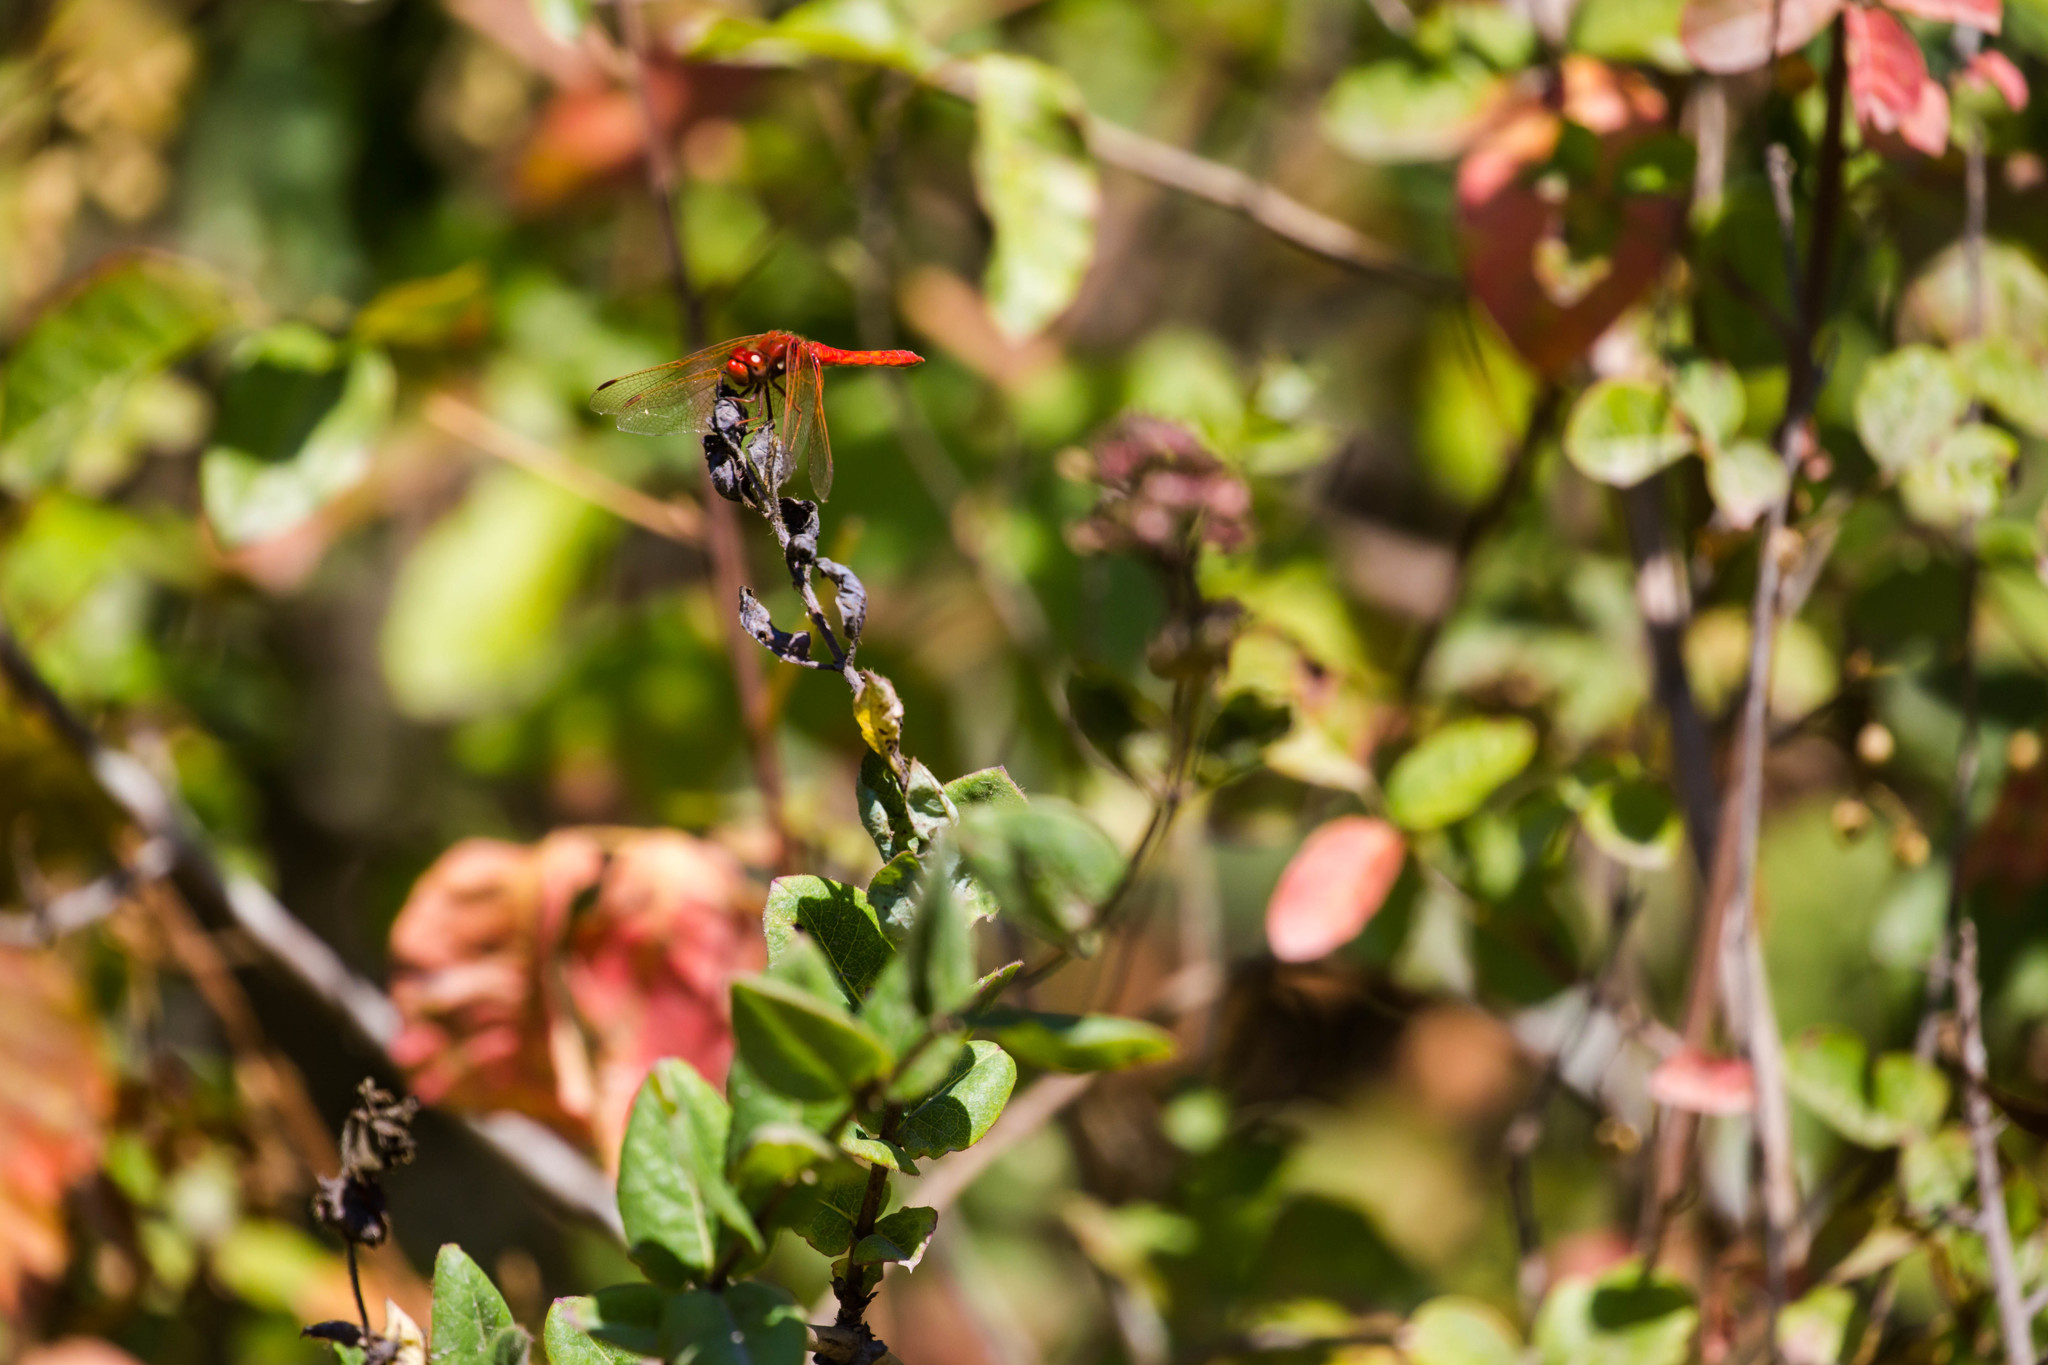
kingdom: Animalia
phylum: Arthropoda
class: Insecta
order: Odonata
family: Libellulidae
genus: Sympetrum
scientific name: Sympetrum illotum
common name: Cardinal meadowhawk
